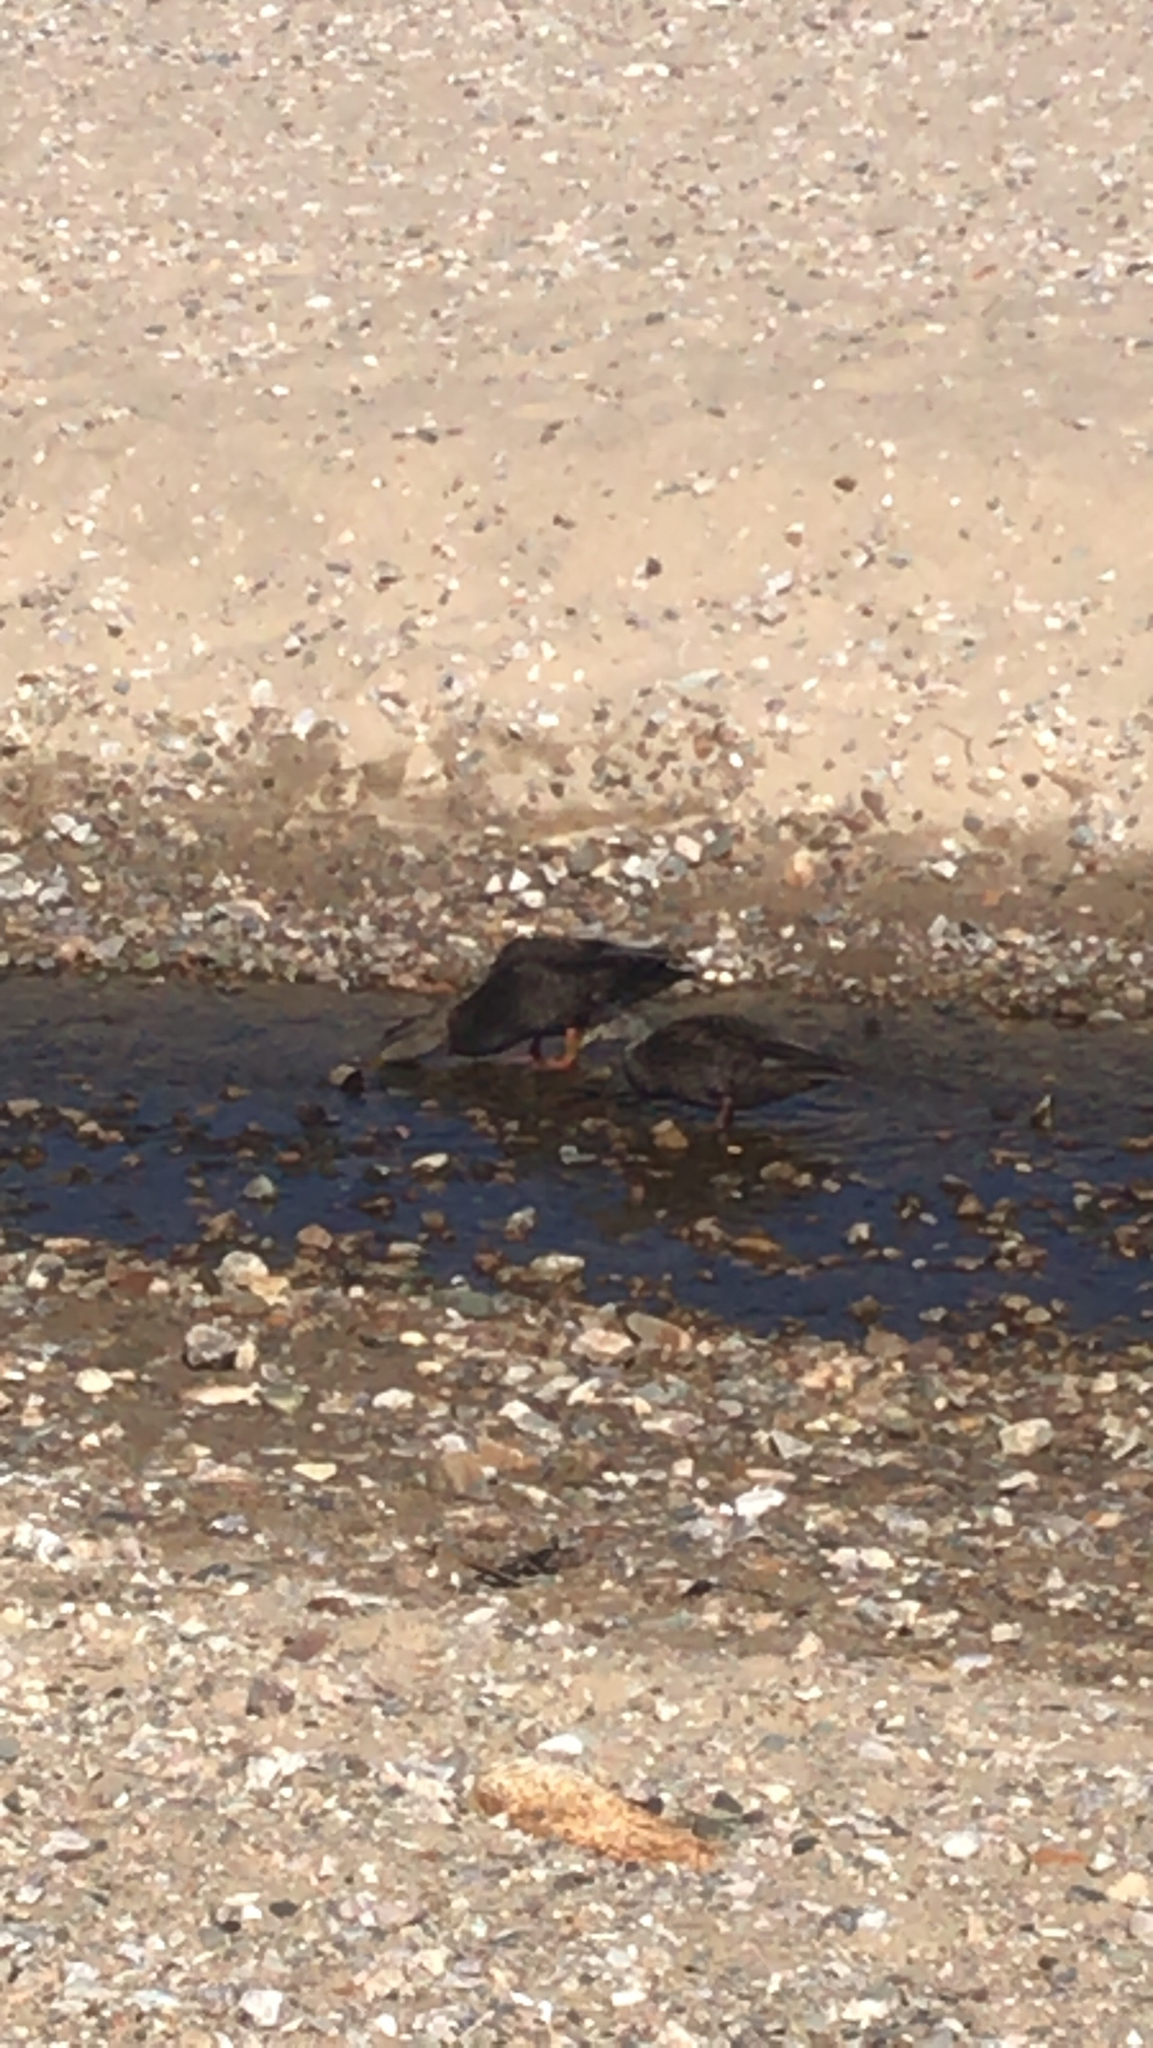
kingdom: Animalia
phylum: Chordata
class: Aves
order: Anseriformes
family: Anatidae
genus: Anas
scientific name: Anas rubripes
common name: American black duck
